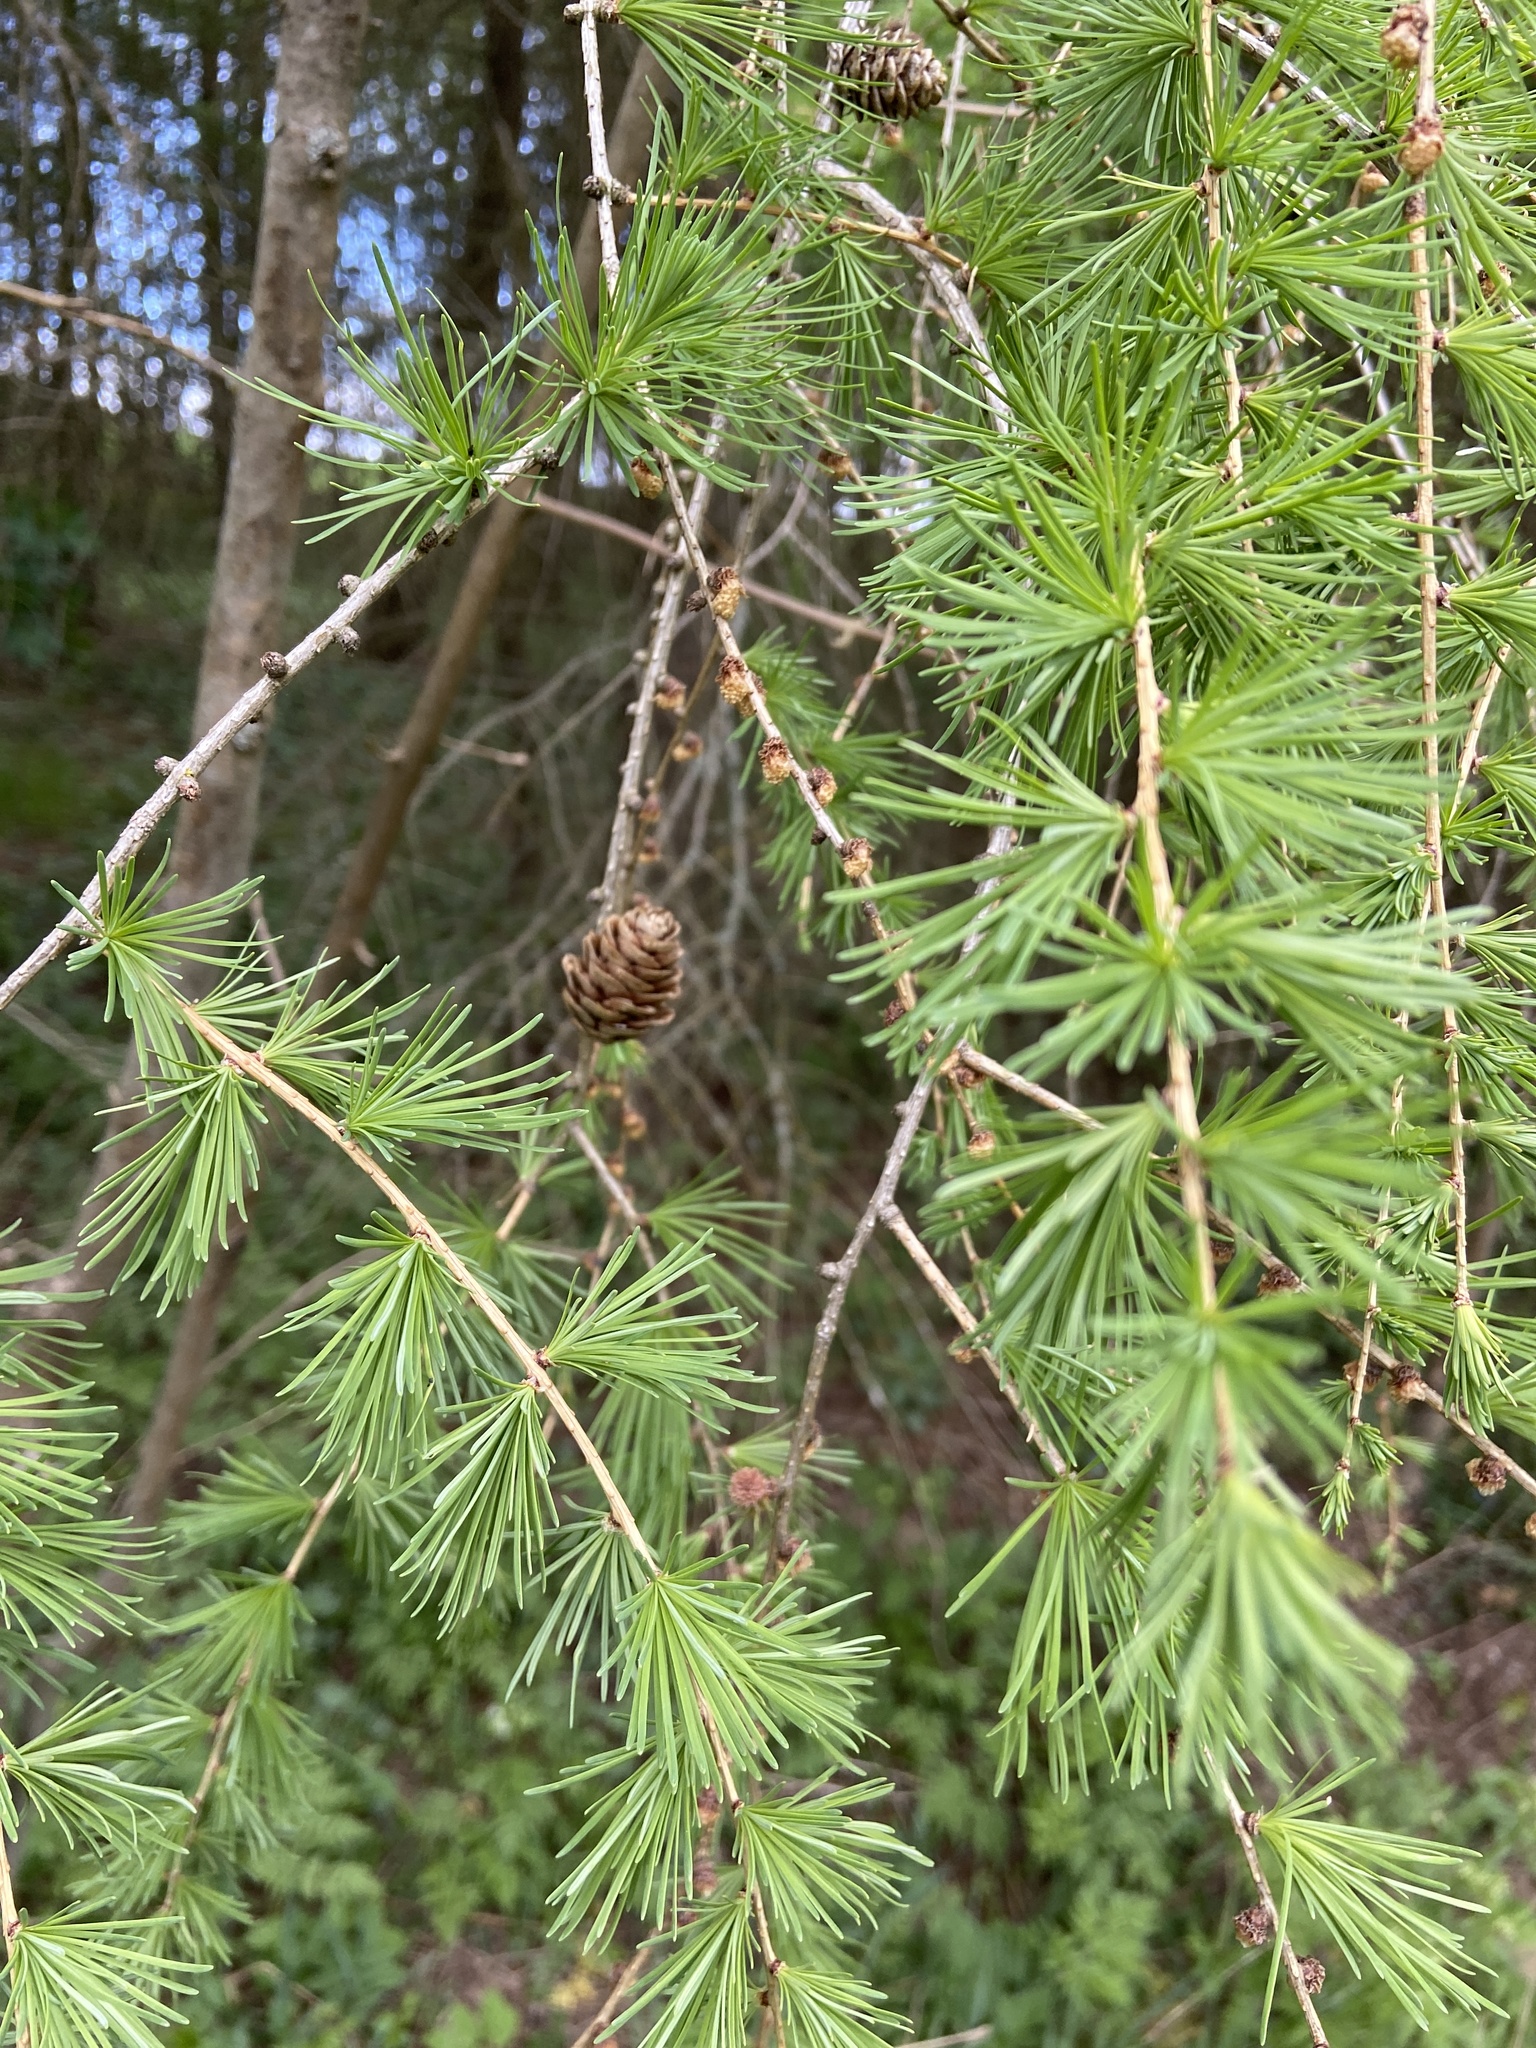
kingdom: Plantae
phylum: Tracheophyta
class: Pinopsida
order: Pinales
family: Pinaceae
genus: Larix
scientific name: Larix decidua
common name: European larch
